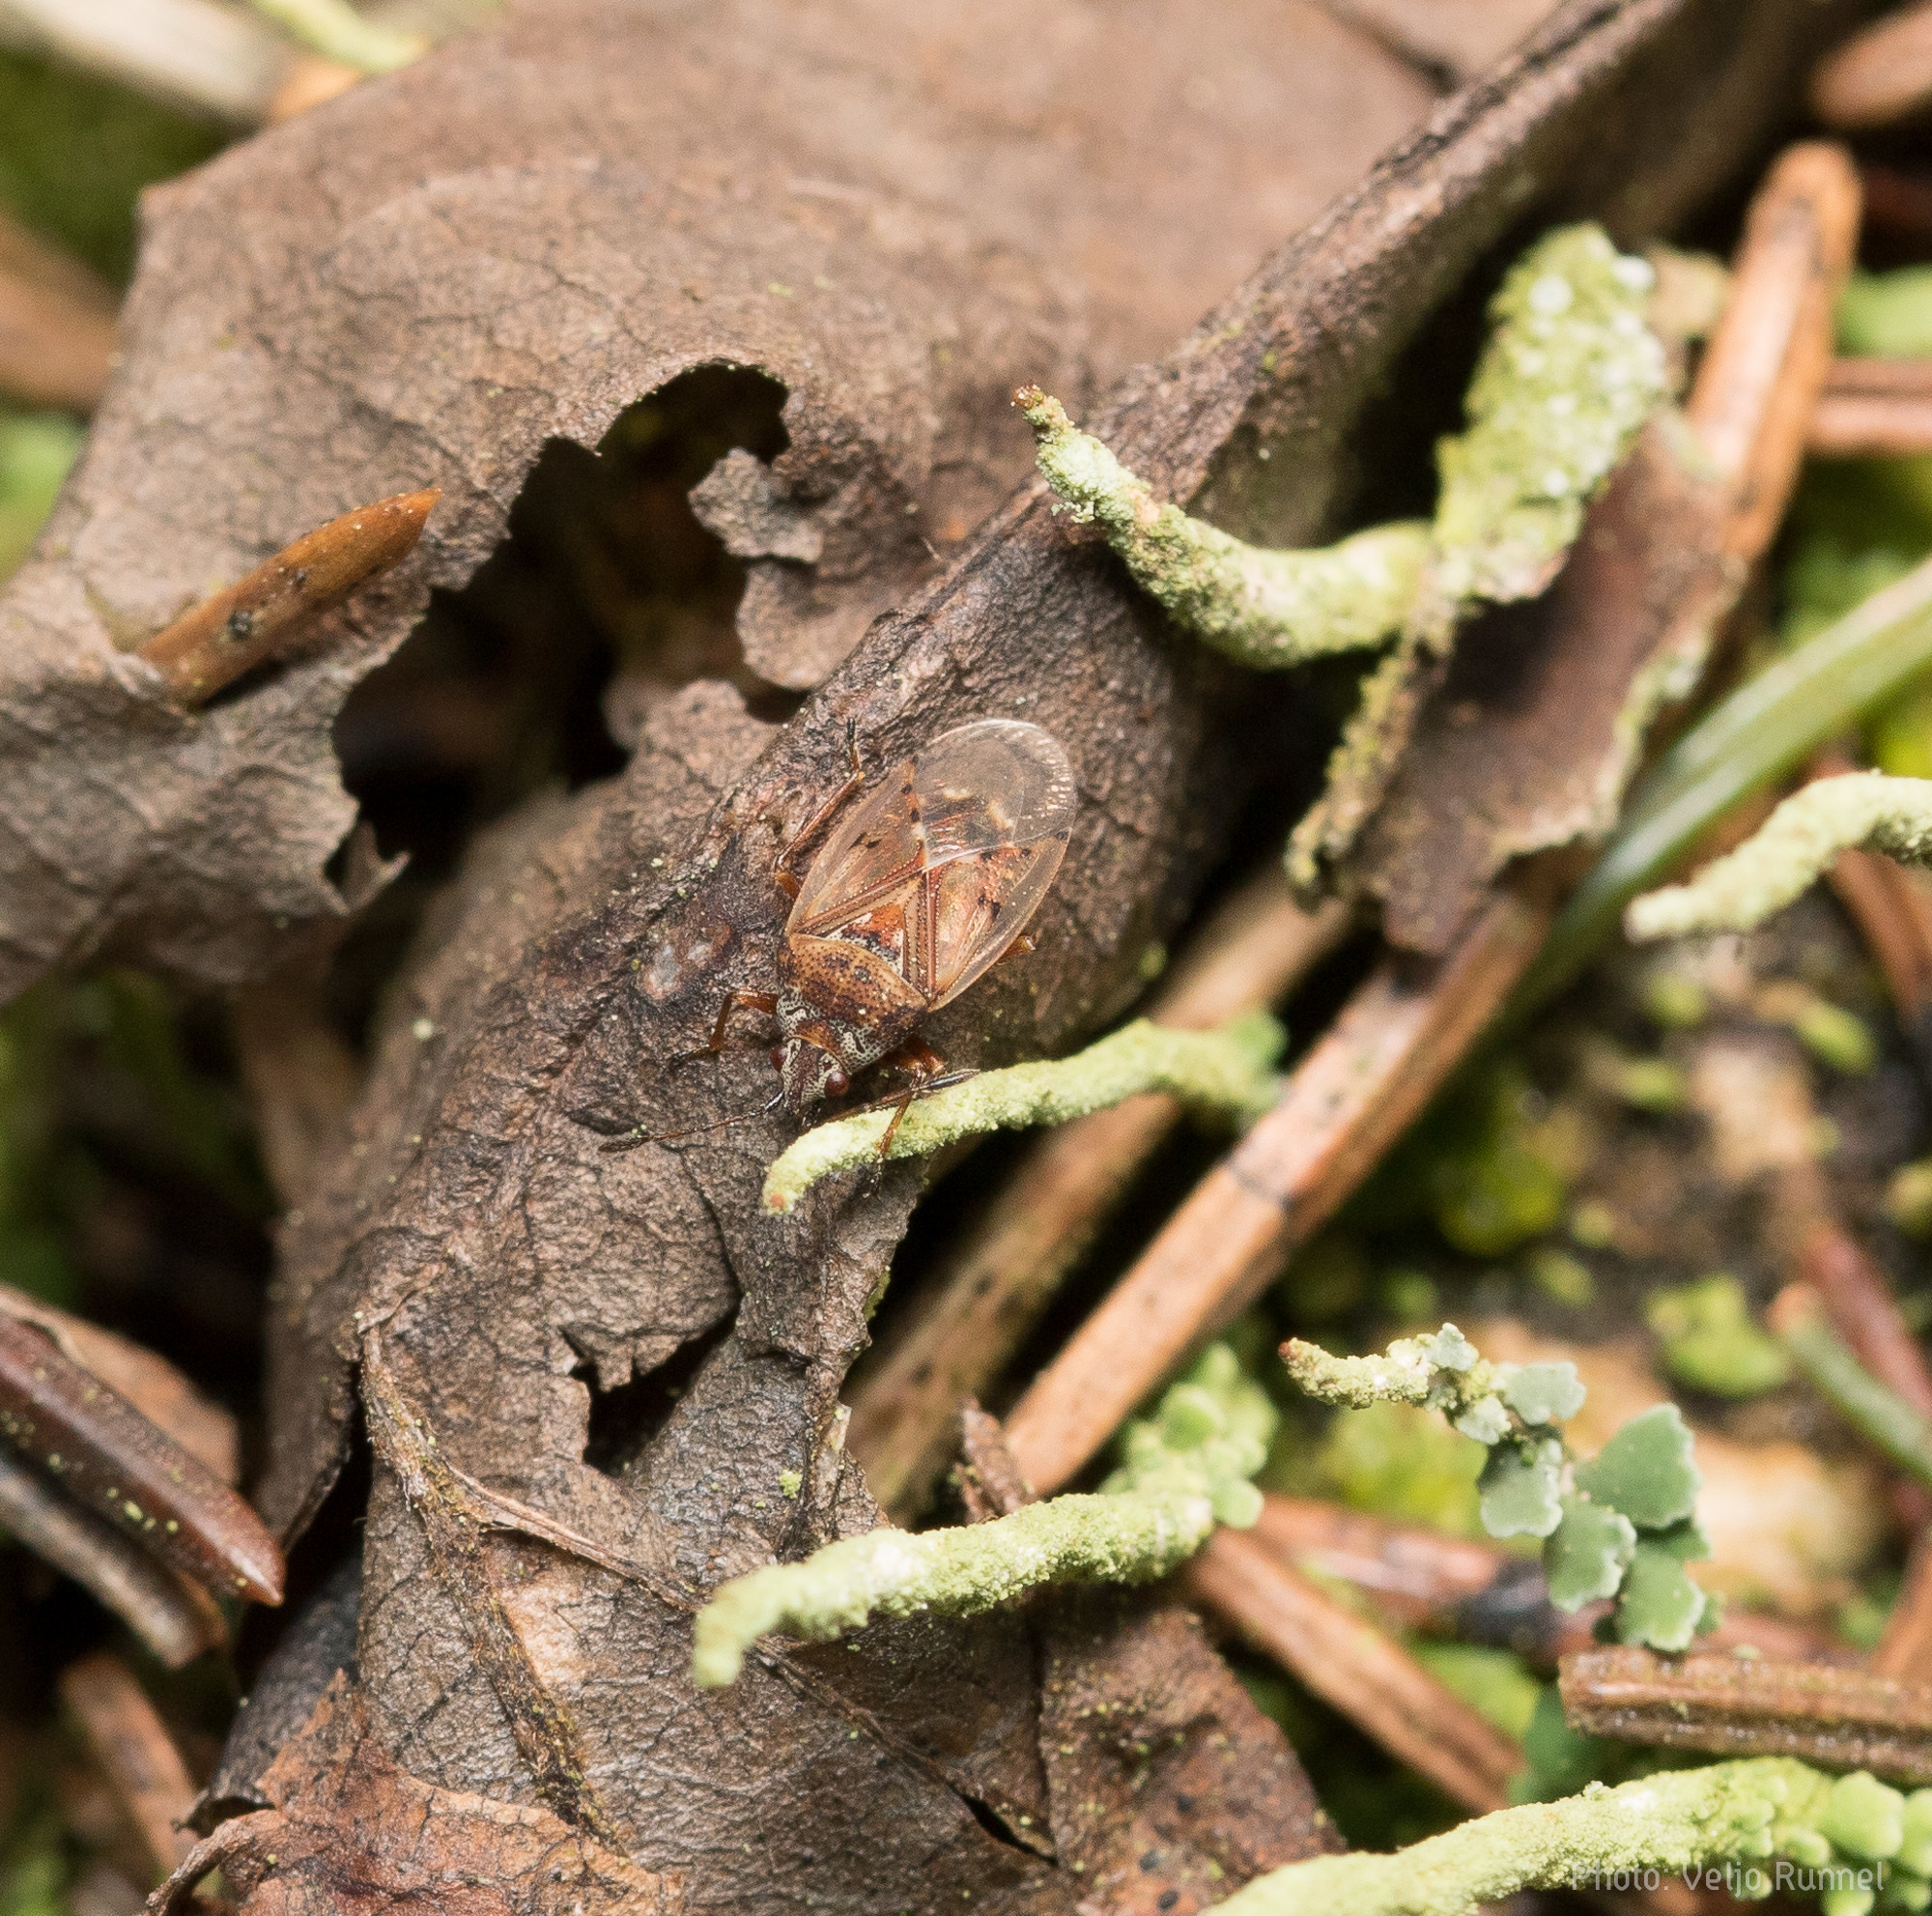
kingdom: Animalia
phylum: Arthropoda
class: Insecta
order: Hemiptera
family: Lygaeidae
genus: Kleidocerys
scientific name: Kleidocerys resedae
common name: Birch catkin bug
